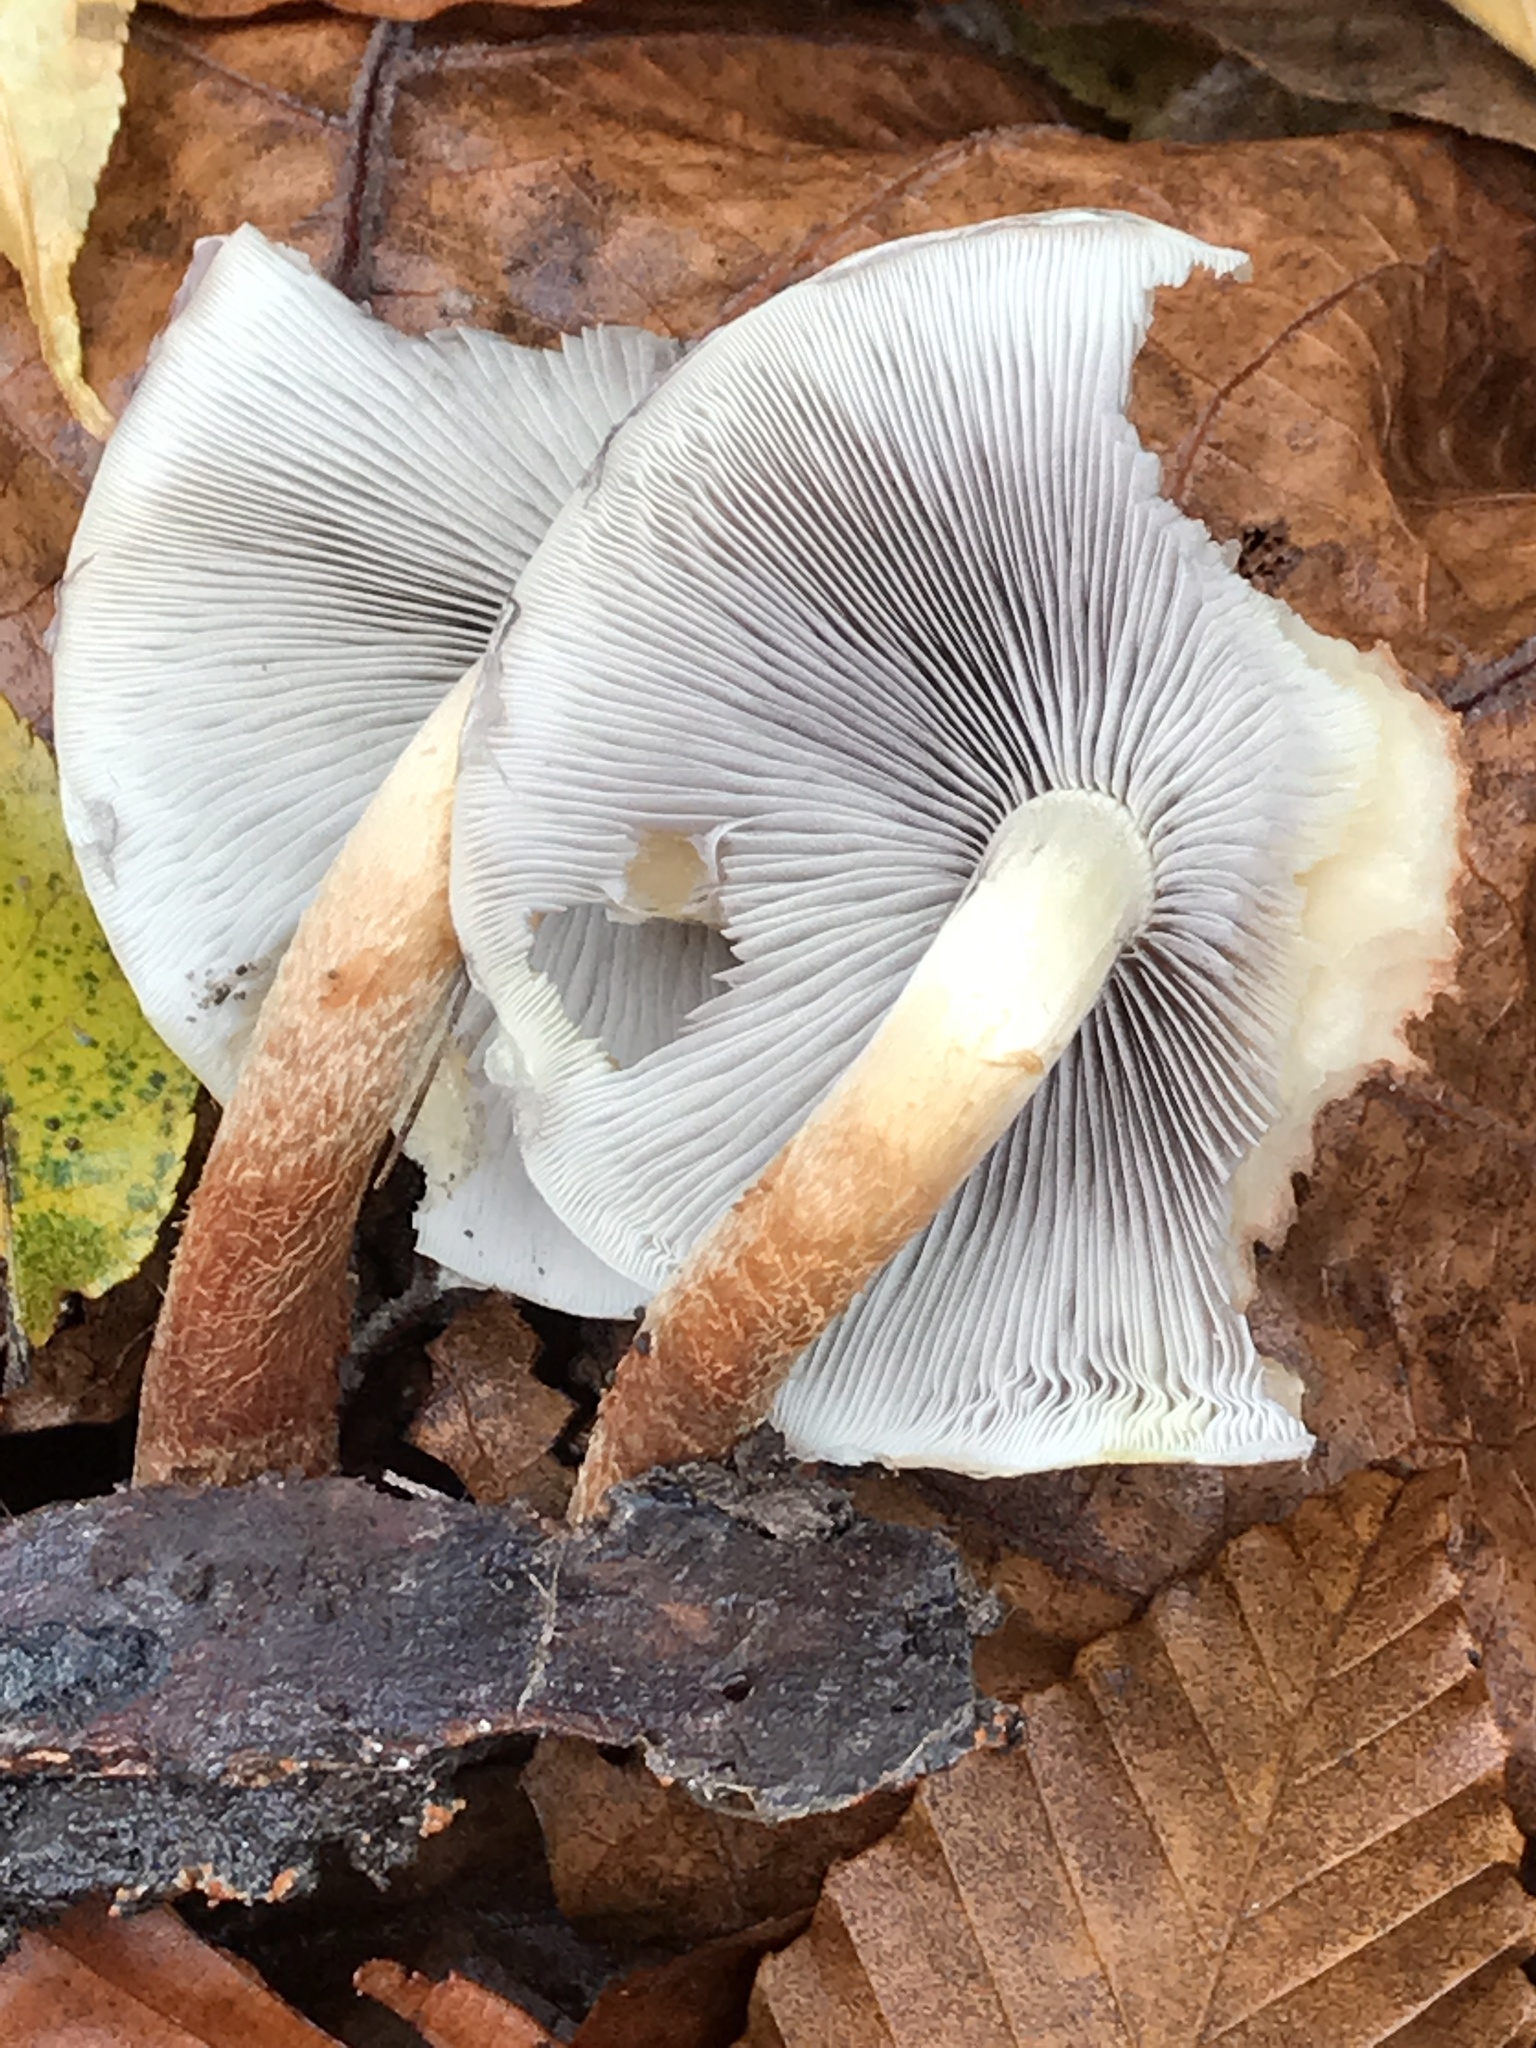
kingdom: Fungi
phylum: Basidiomycota
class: Agaricomycetes
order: Agaricales
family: Strophariaceae
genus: Hypholoma
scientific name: Hypholoma lateritium
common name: Brick caps
